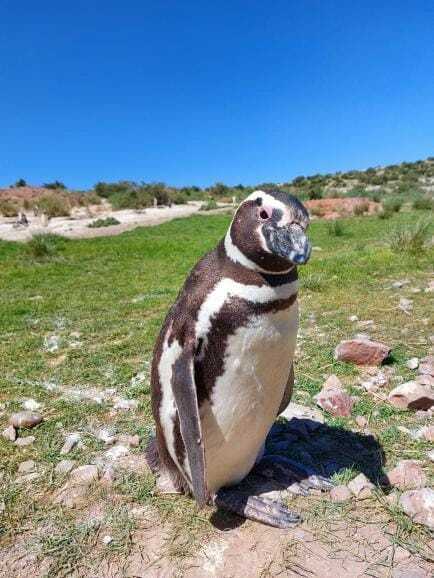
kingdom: Animalia
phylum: Chordata
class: Aves
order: Sphenisciformes
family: Spheniscidae
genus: Spheniscus
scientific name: Spheniscus magellanicus
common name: Magellanic penguin
